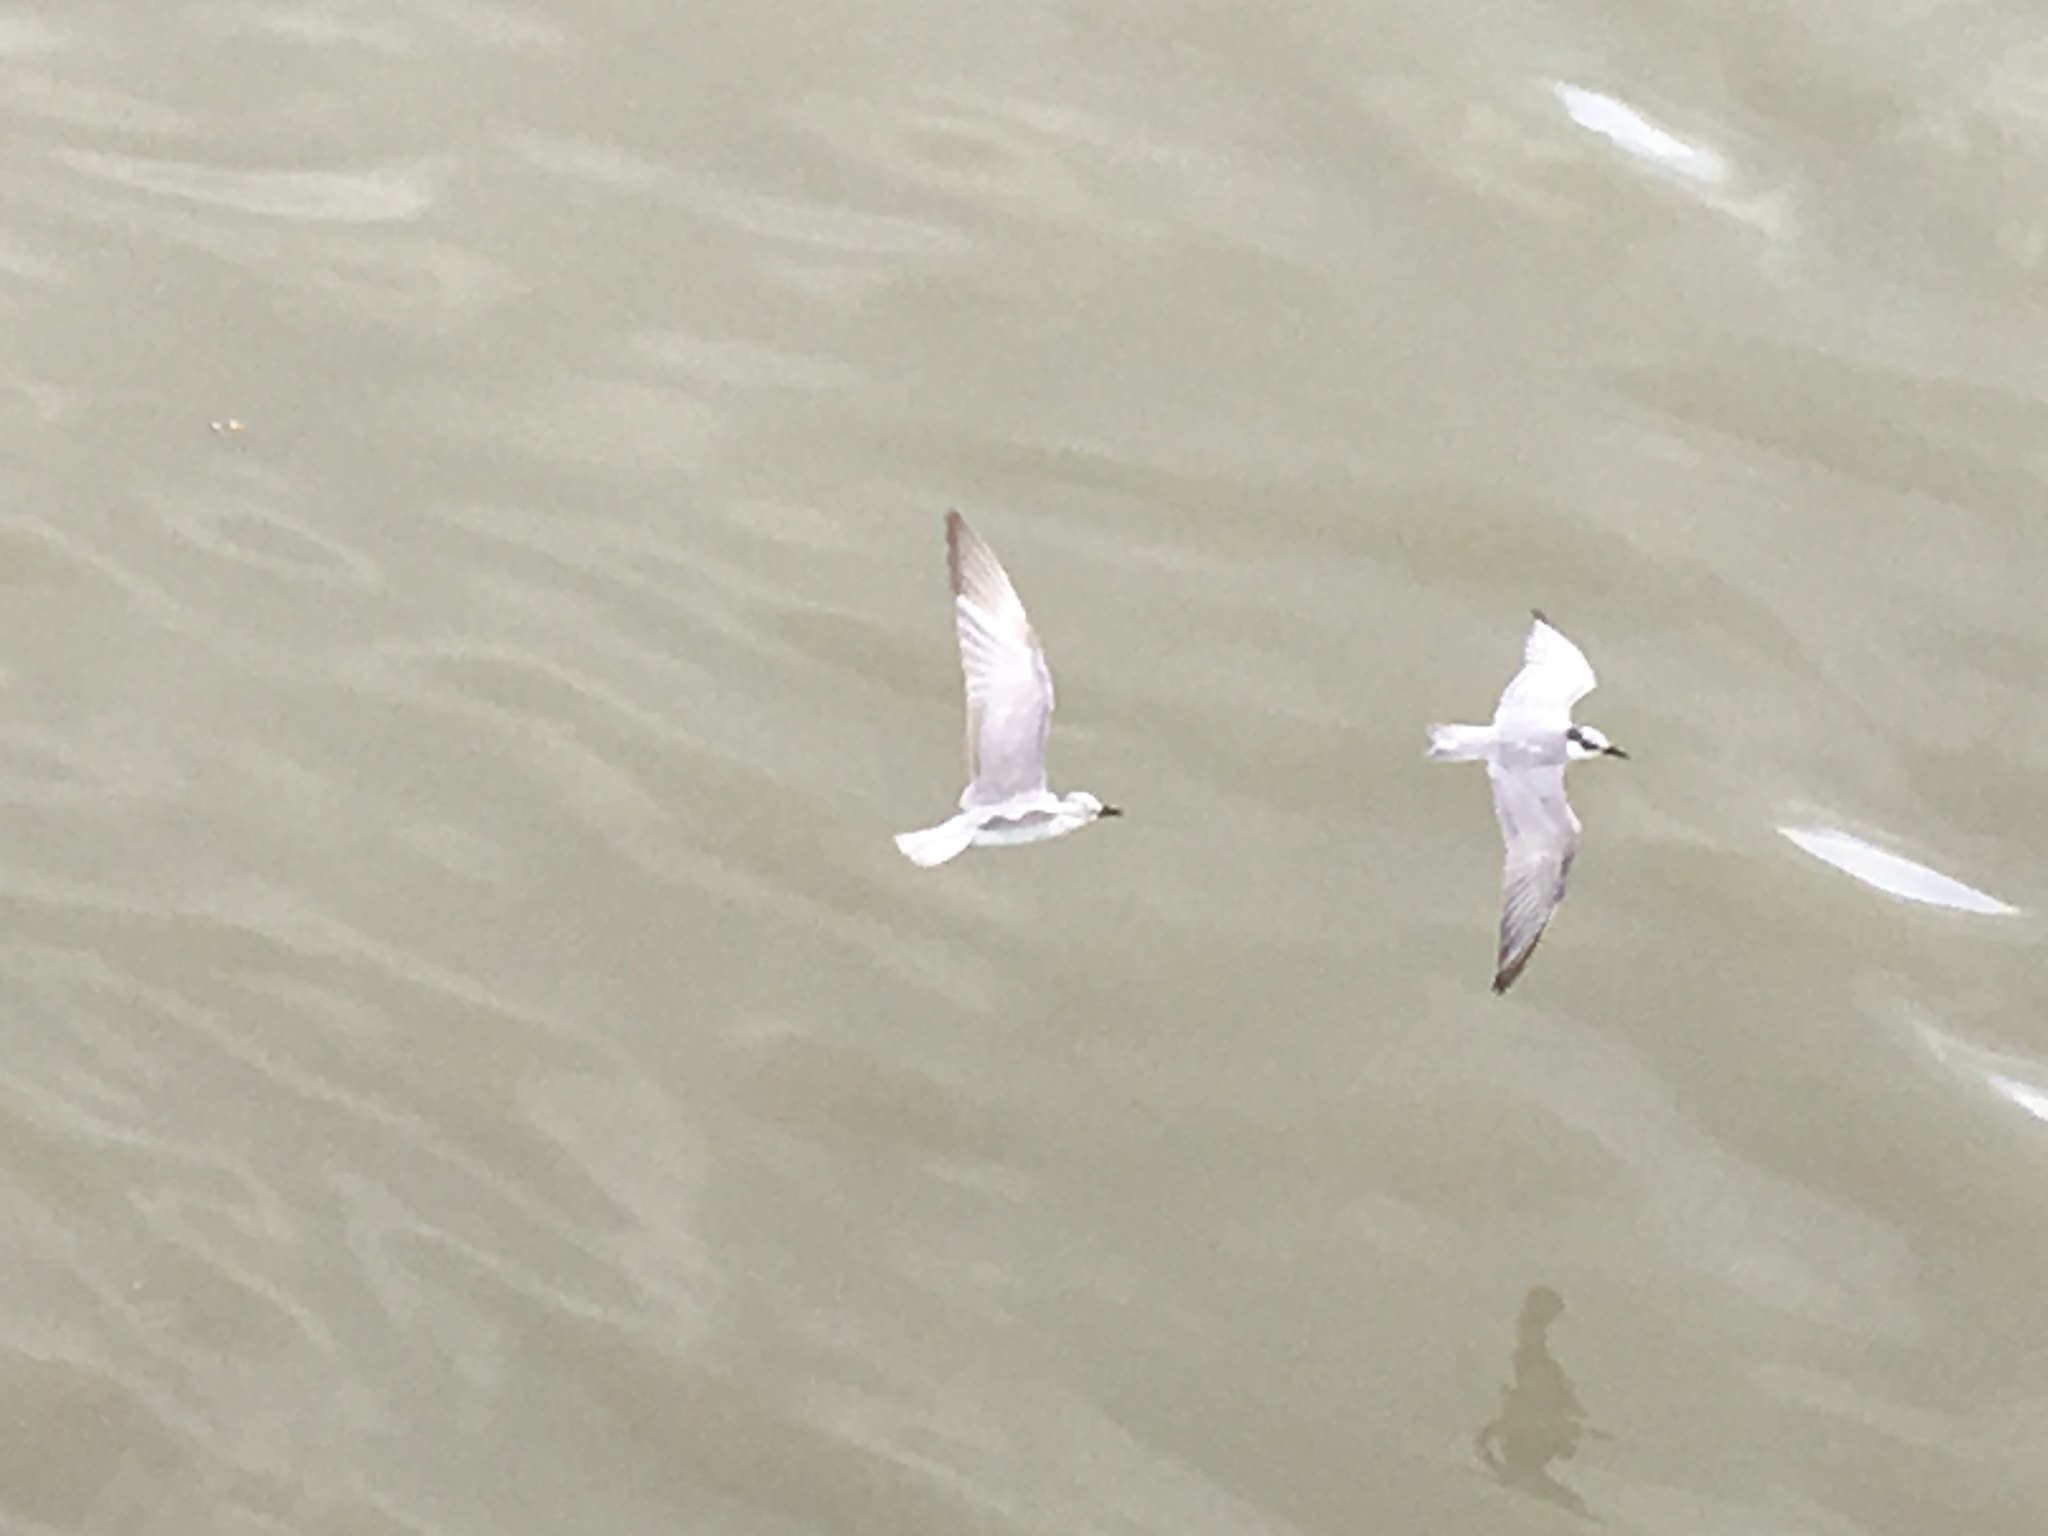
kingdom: Animalia
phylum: Chordata
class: Aves
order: Charadriiformes
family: Laridae
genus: Chlidonias
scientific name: Chlidonias hybrida
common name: Whiskered tern
